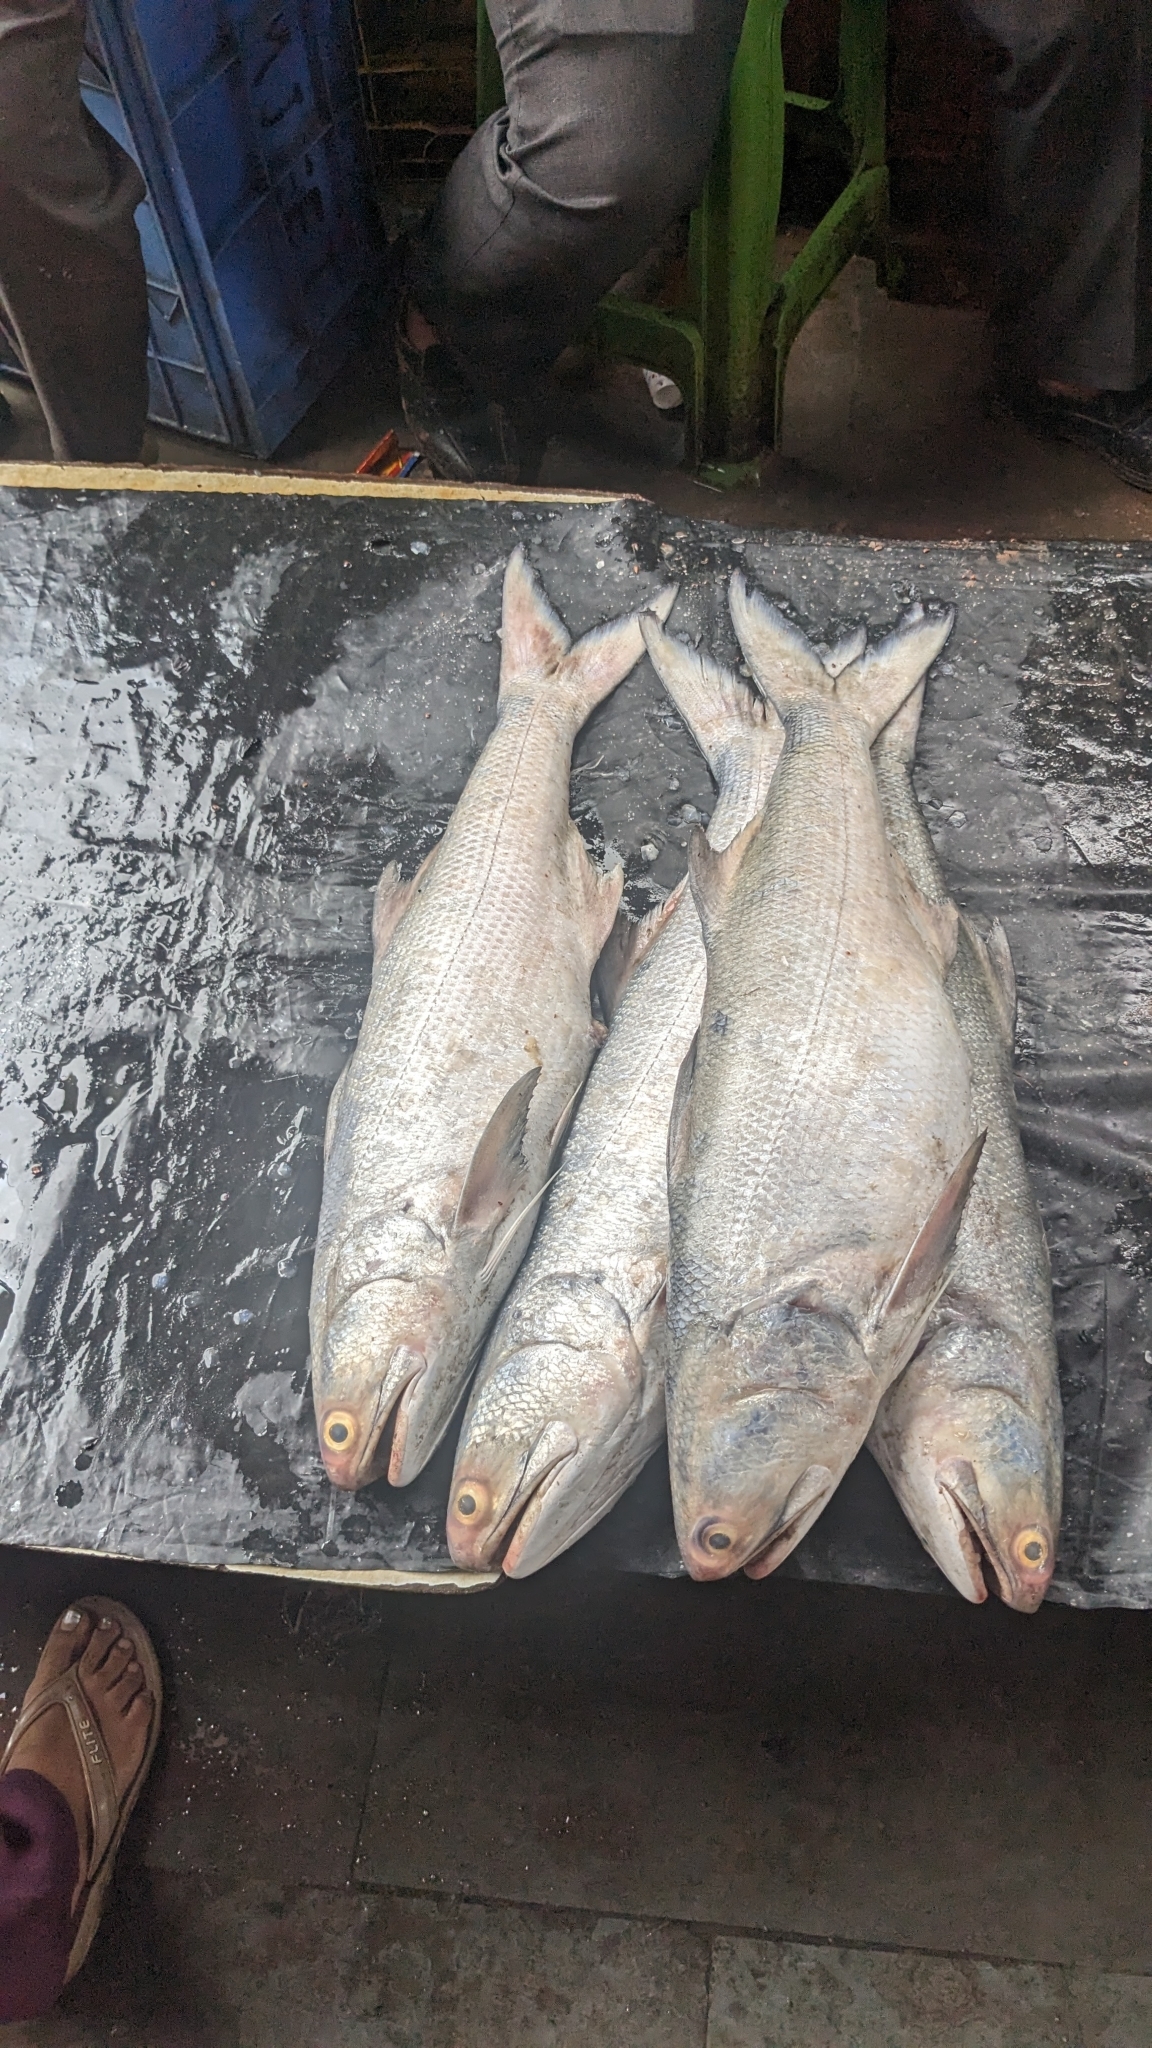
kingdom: Animalia
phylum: Chordata
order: Perciformes
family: Polynemidae
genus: Eleutheronema
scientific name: Eleutheronema tetradactylum
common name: Fourfinger threadfin
